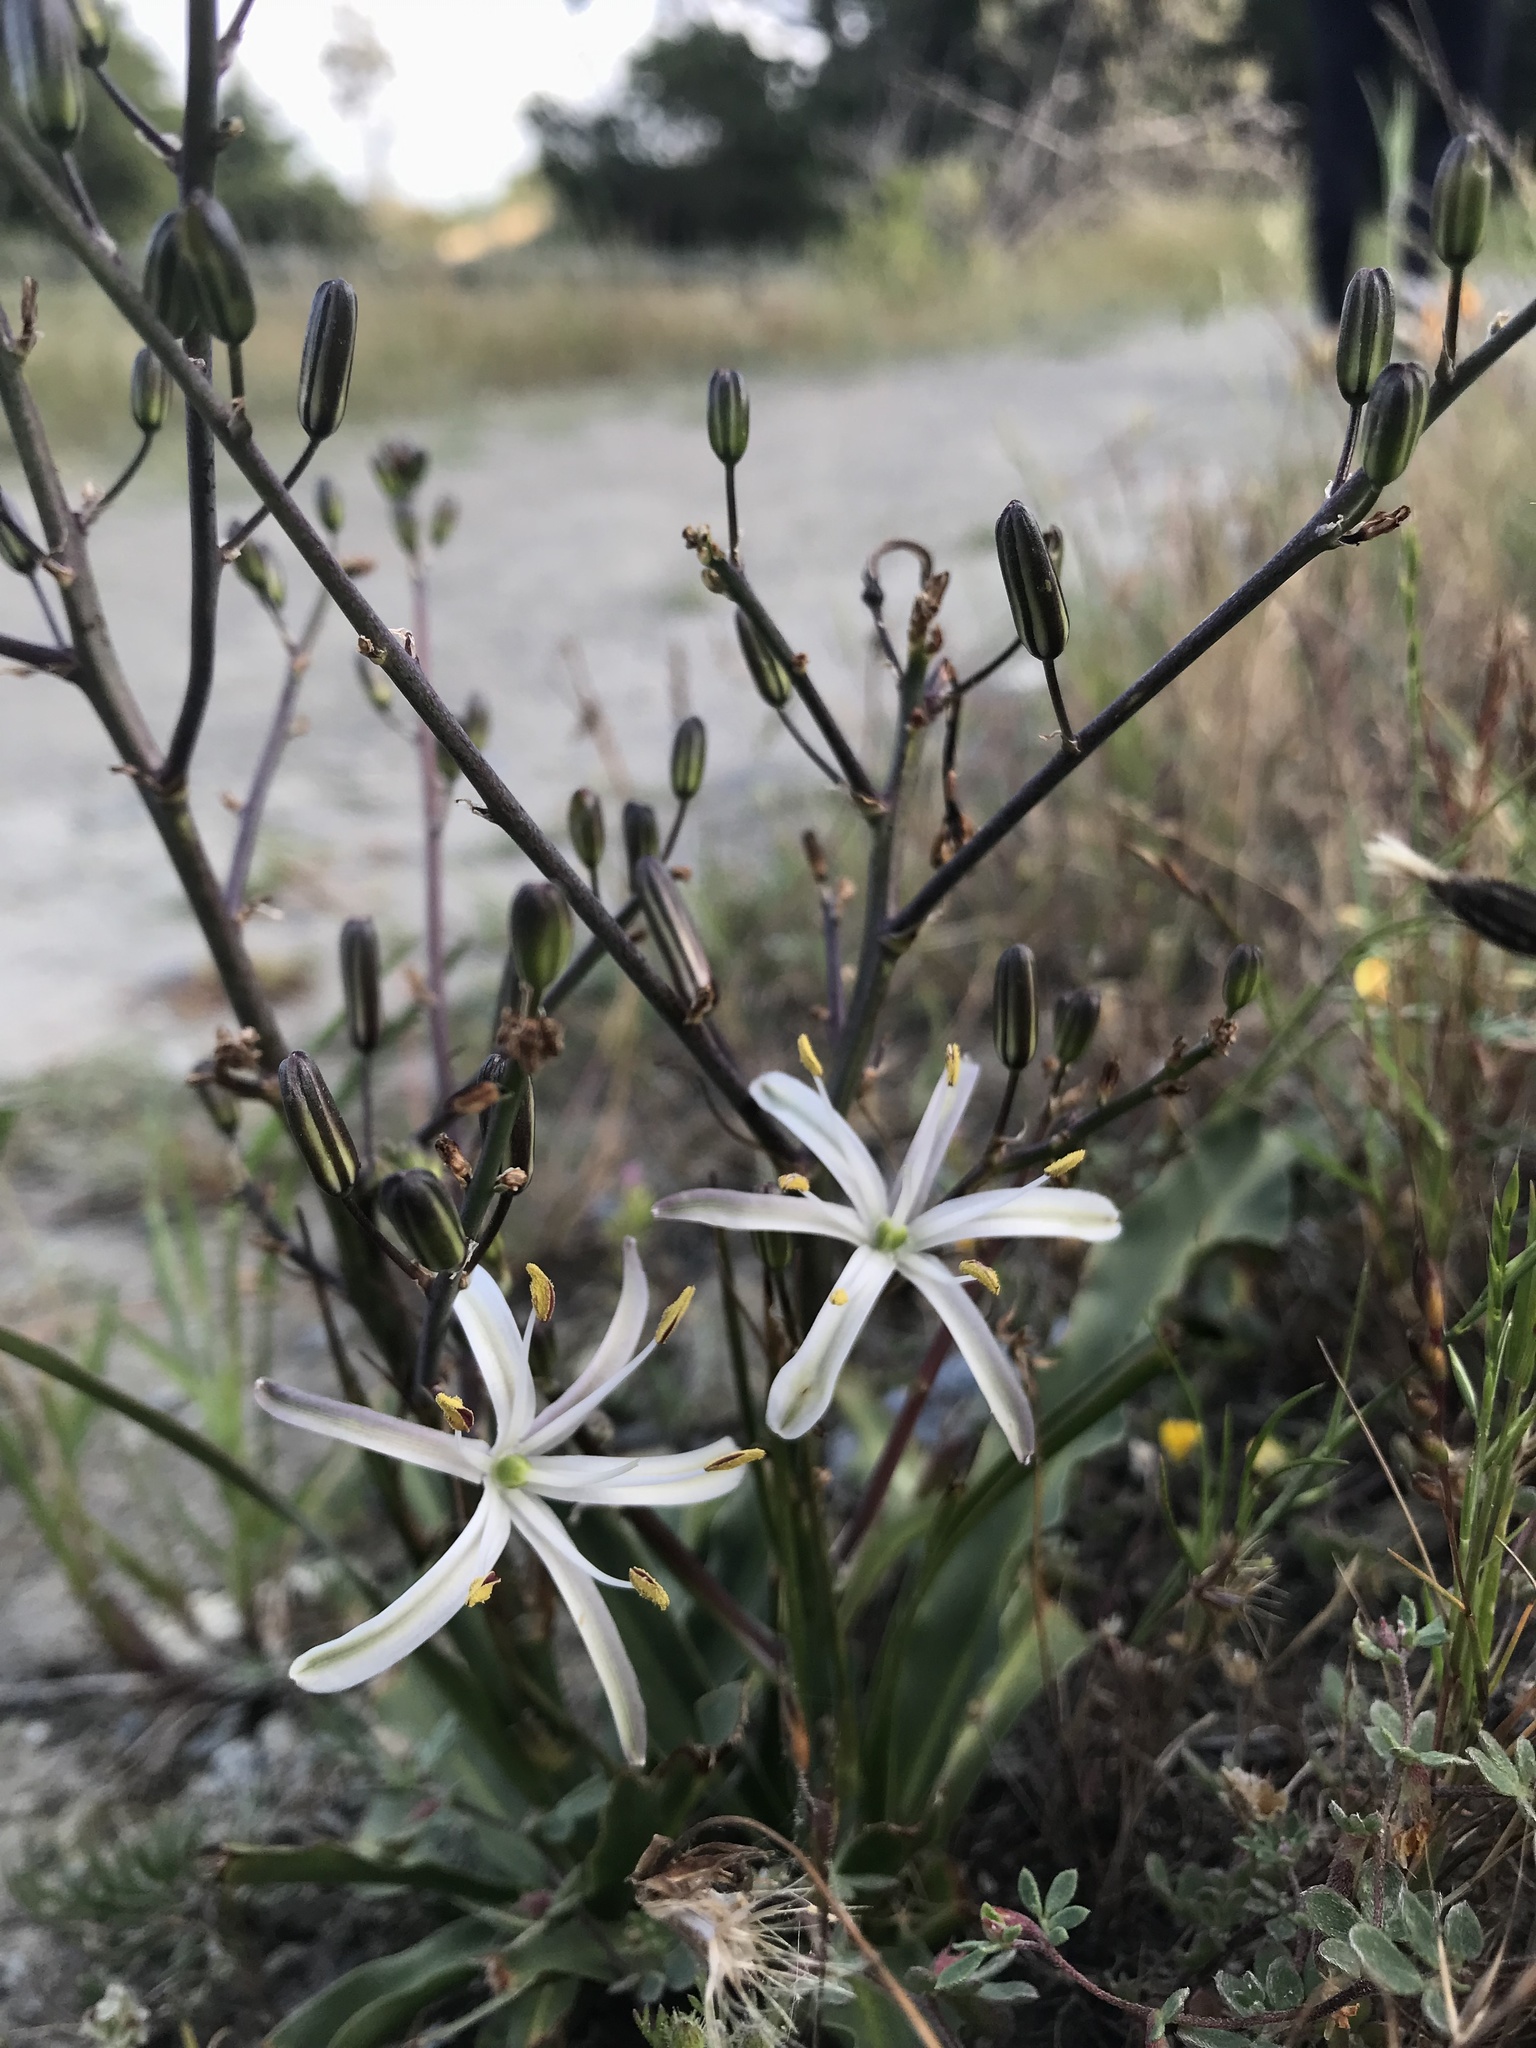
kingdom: Plantae
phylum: Tracheophyta
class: Liliopsida
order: Asparagales
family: Asparagaceae
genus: Chlorogalum
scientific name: Chlorogalum pomeridianum
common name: Amole
